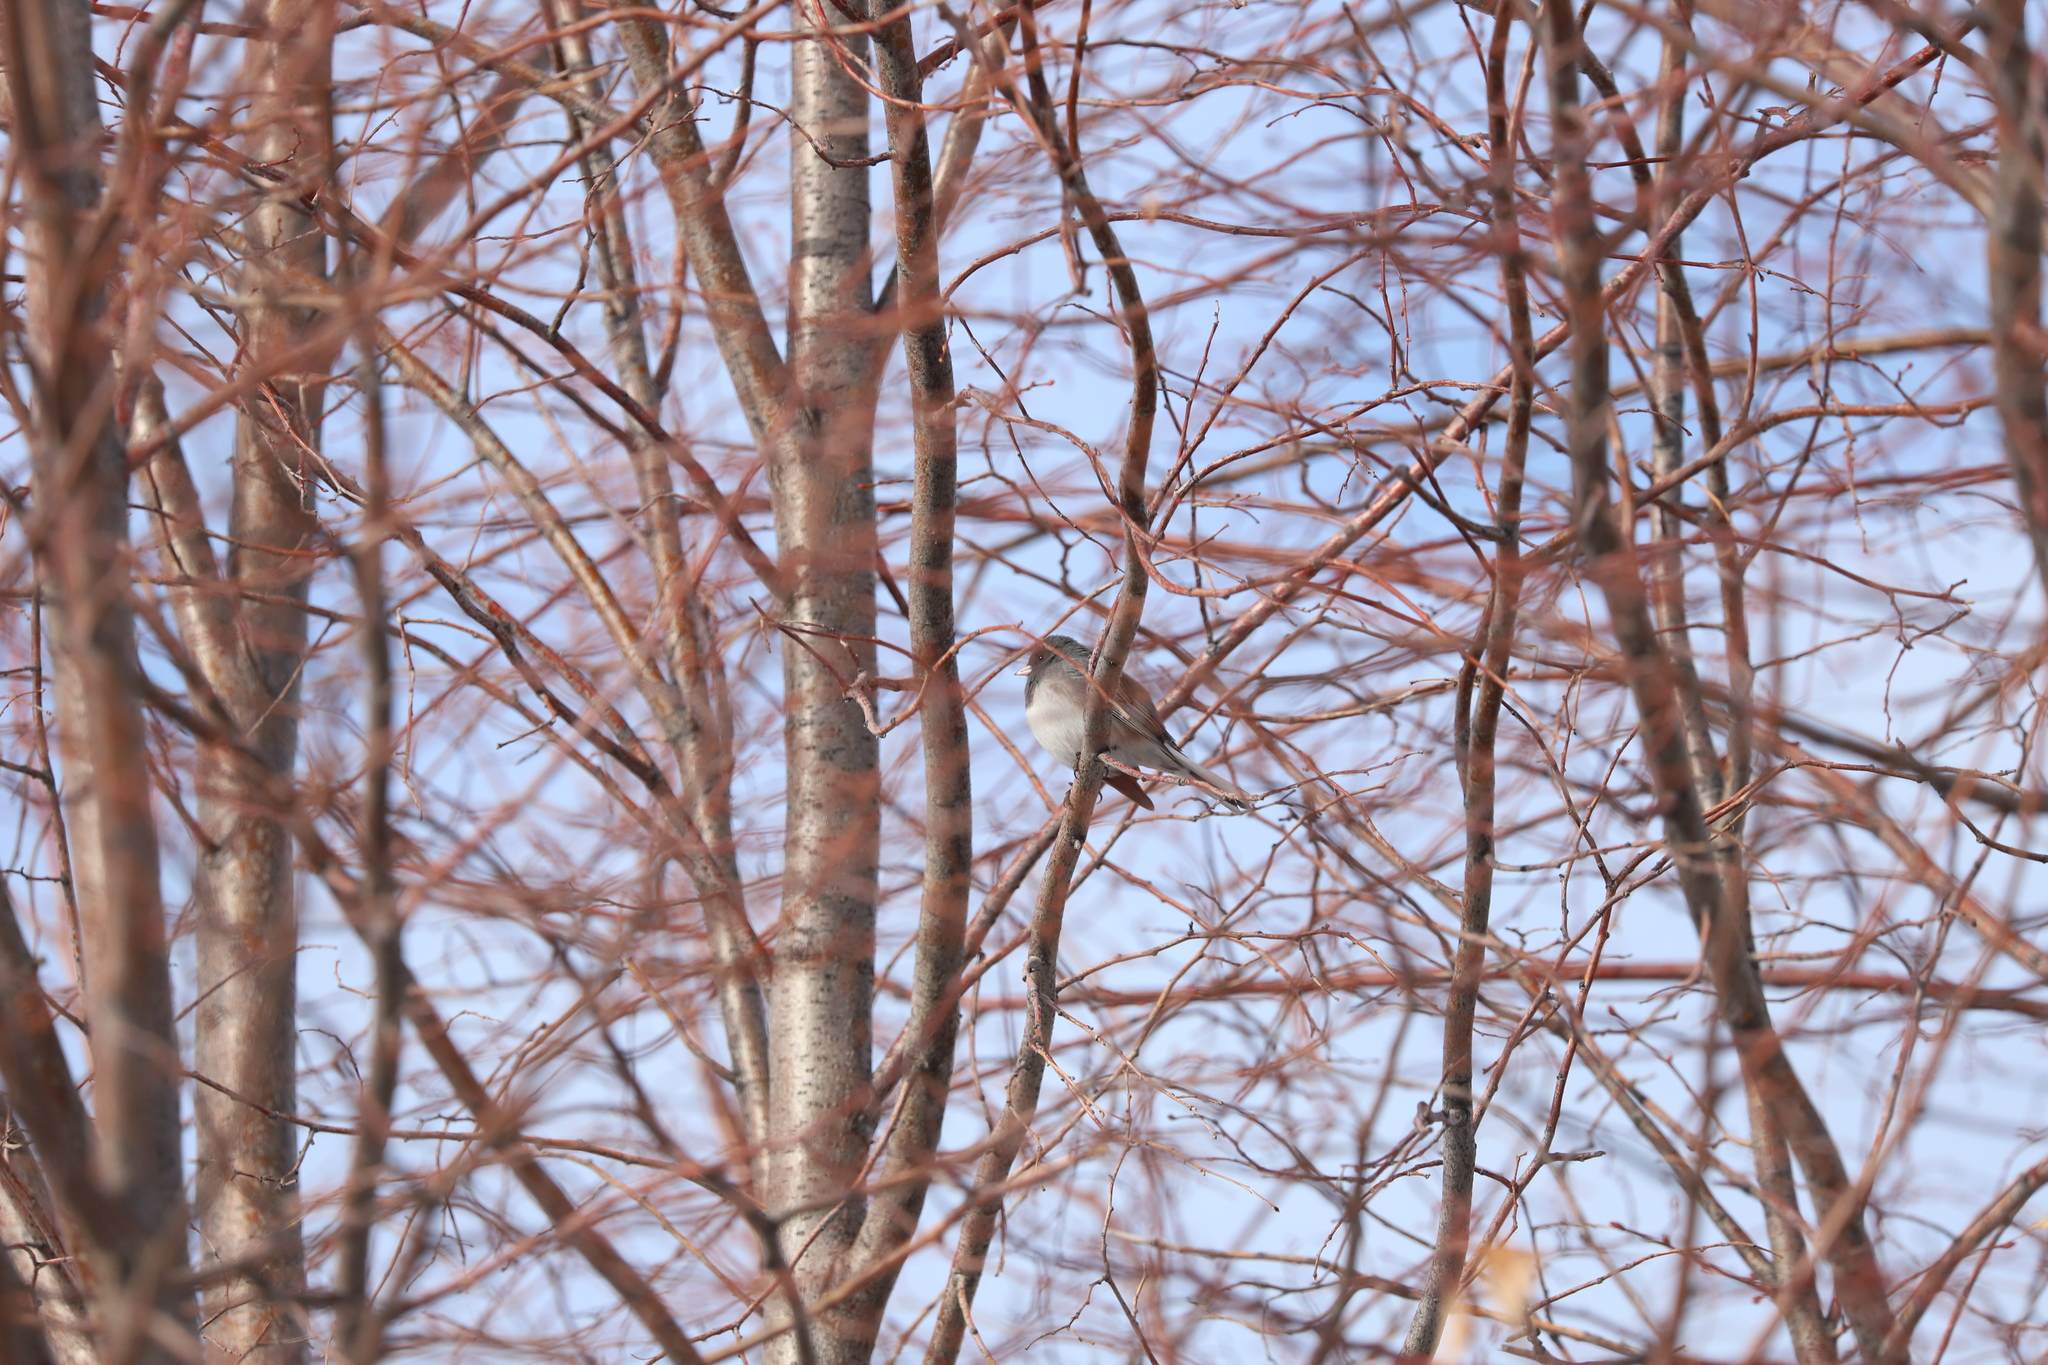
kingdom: Animalia
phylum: Chordata
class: Aves
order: Passeriformes
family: Passerellidae
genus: Junco
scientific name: Junco hyemalis
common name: Dark-eyed junco
